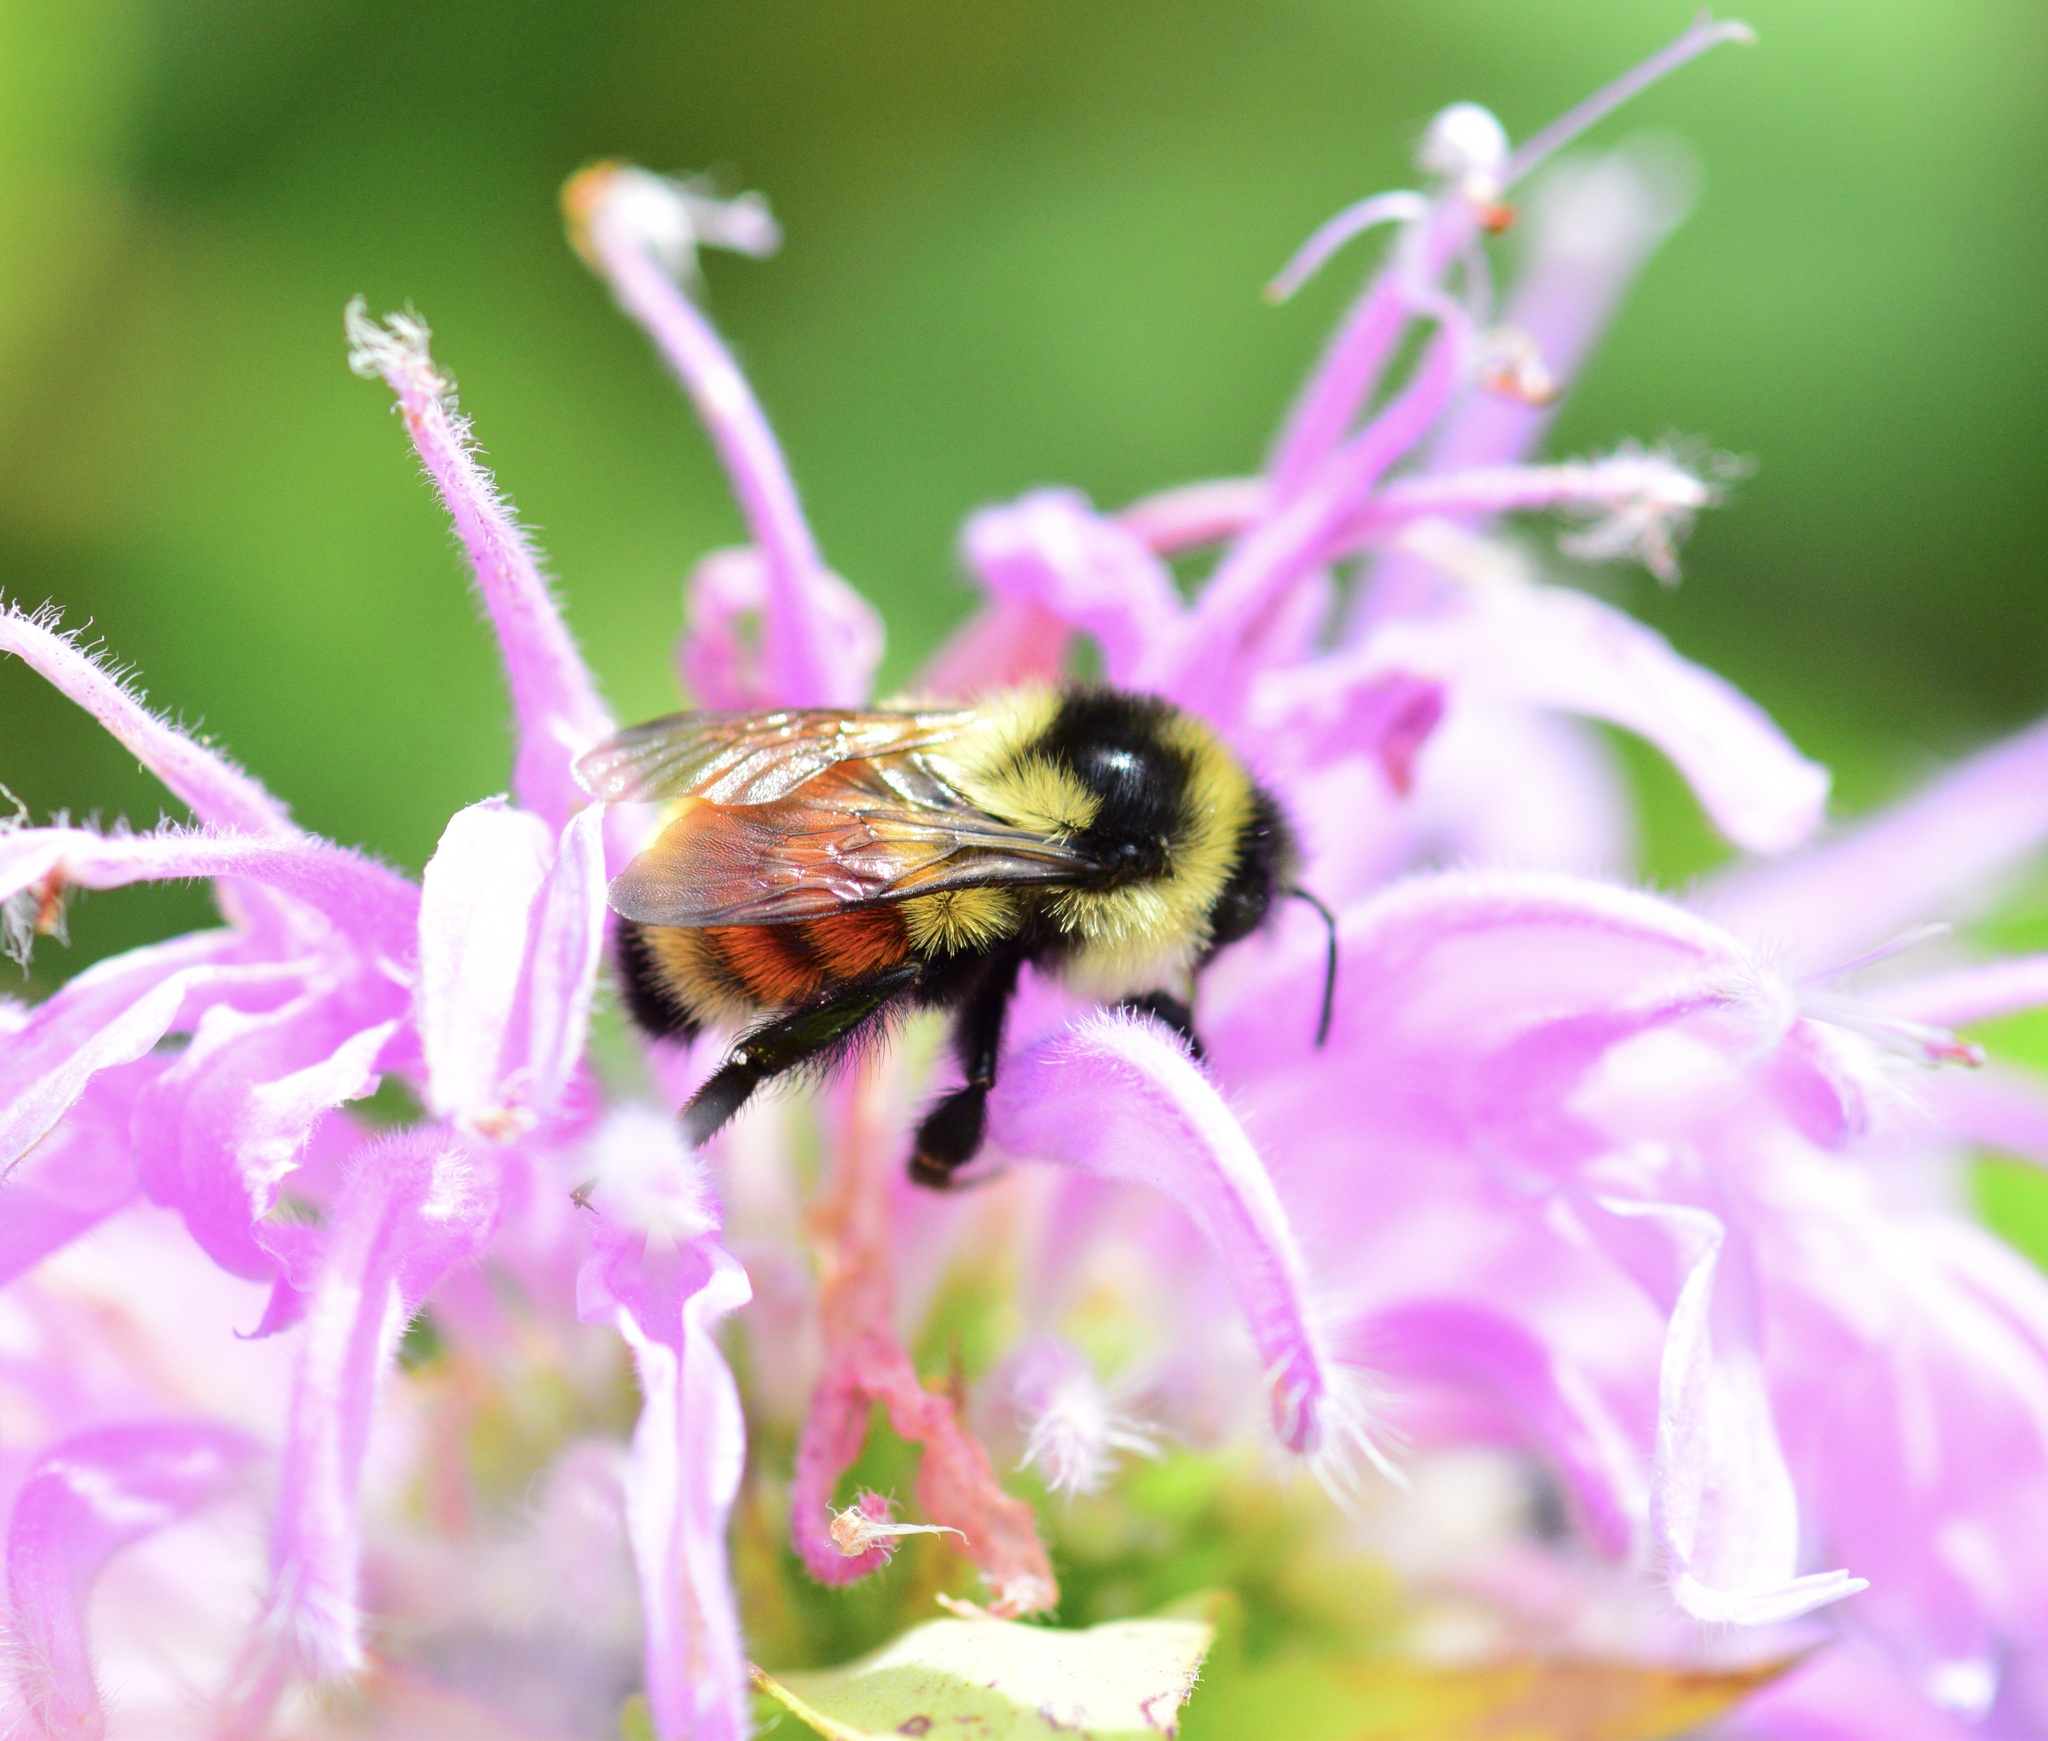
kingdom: Animalia
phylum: Arthropoda
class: Insecta
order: Hymenoptera
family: Apidae
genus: Bombus
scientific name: Bombus ternarius
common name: Tri-colored bumble bee
